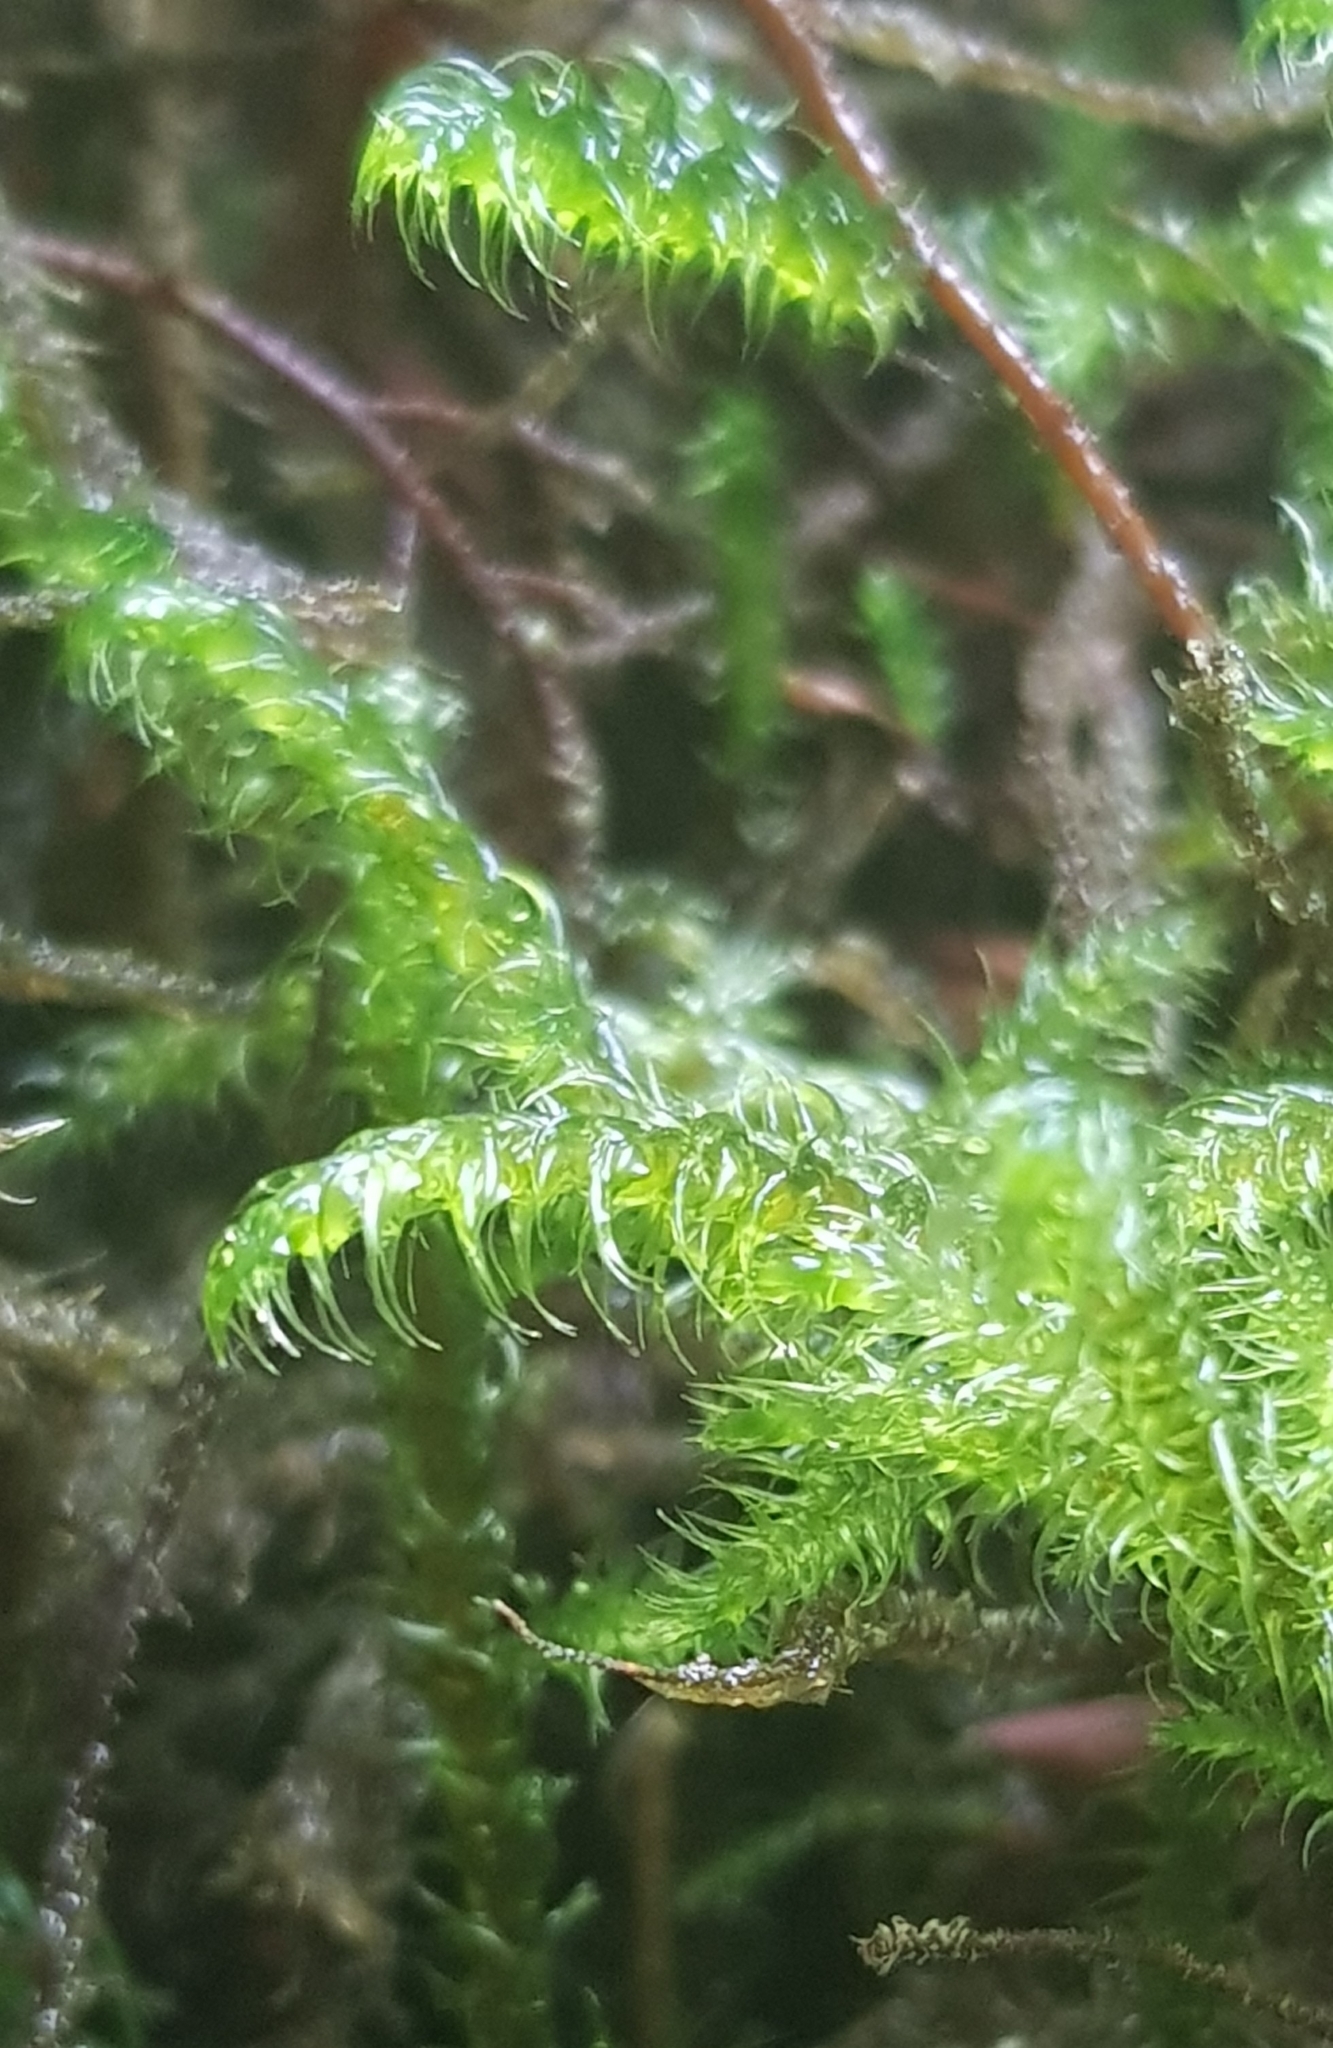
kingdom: Plantae
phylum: Bryophyta
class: Bryopsida
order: Hypnales
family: Hylocomiaceae
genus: Rhytidiadelphus
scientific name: Rhytidiadelphus loreus
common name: Lanky moss
